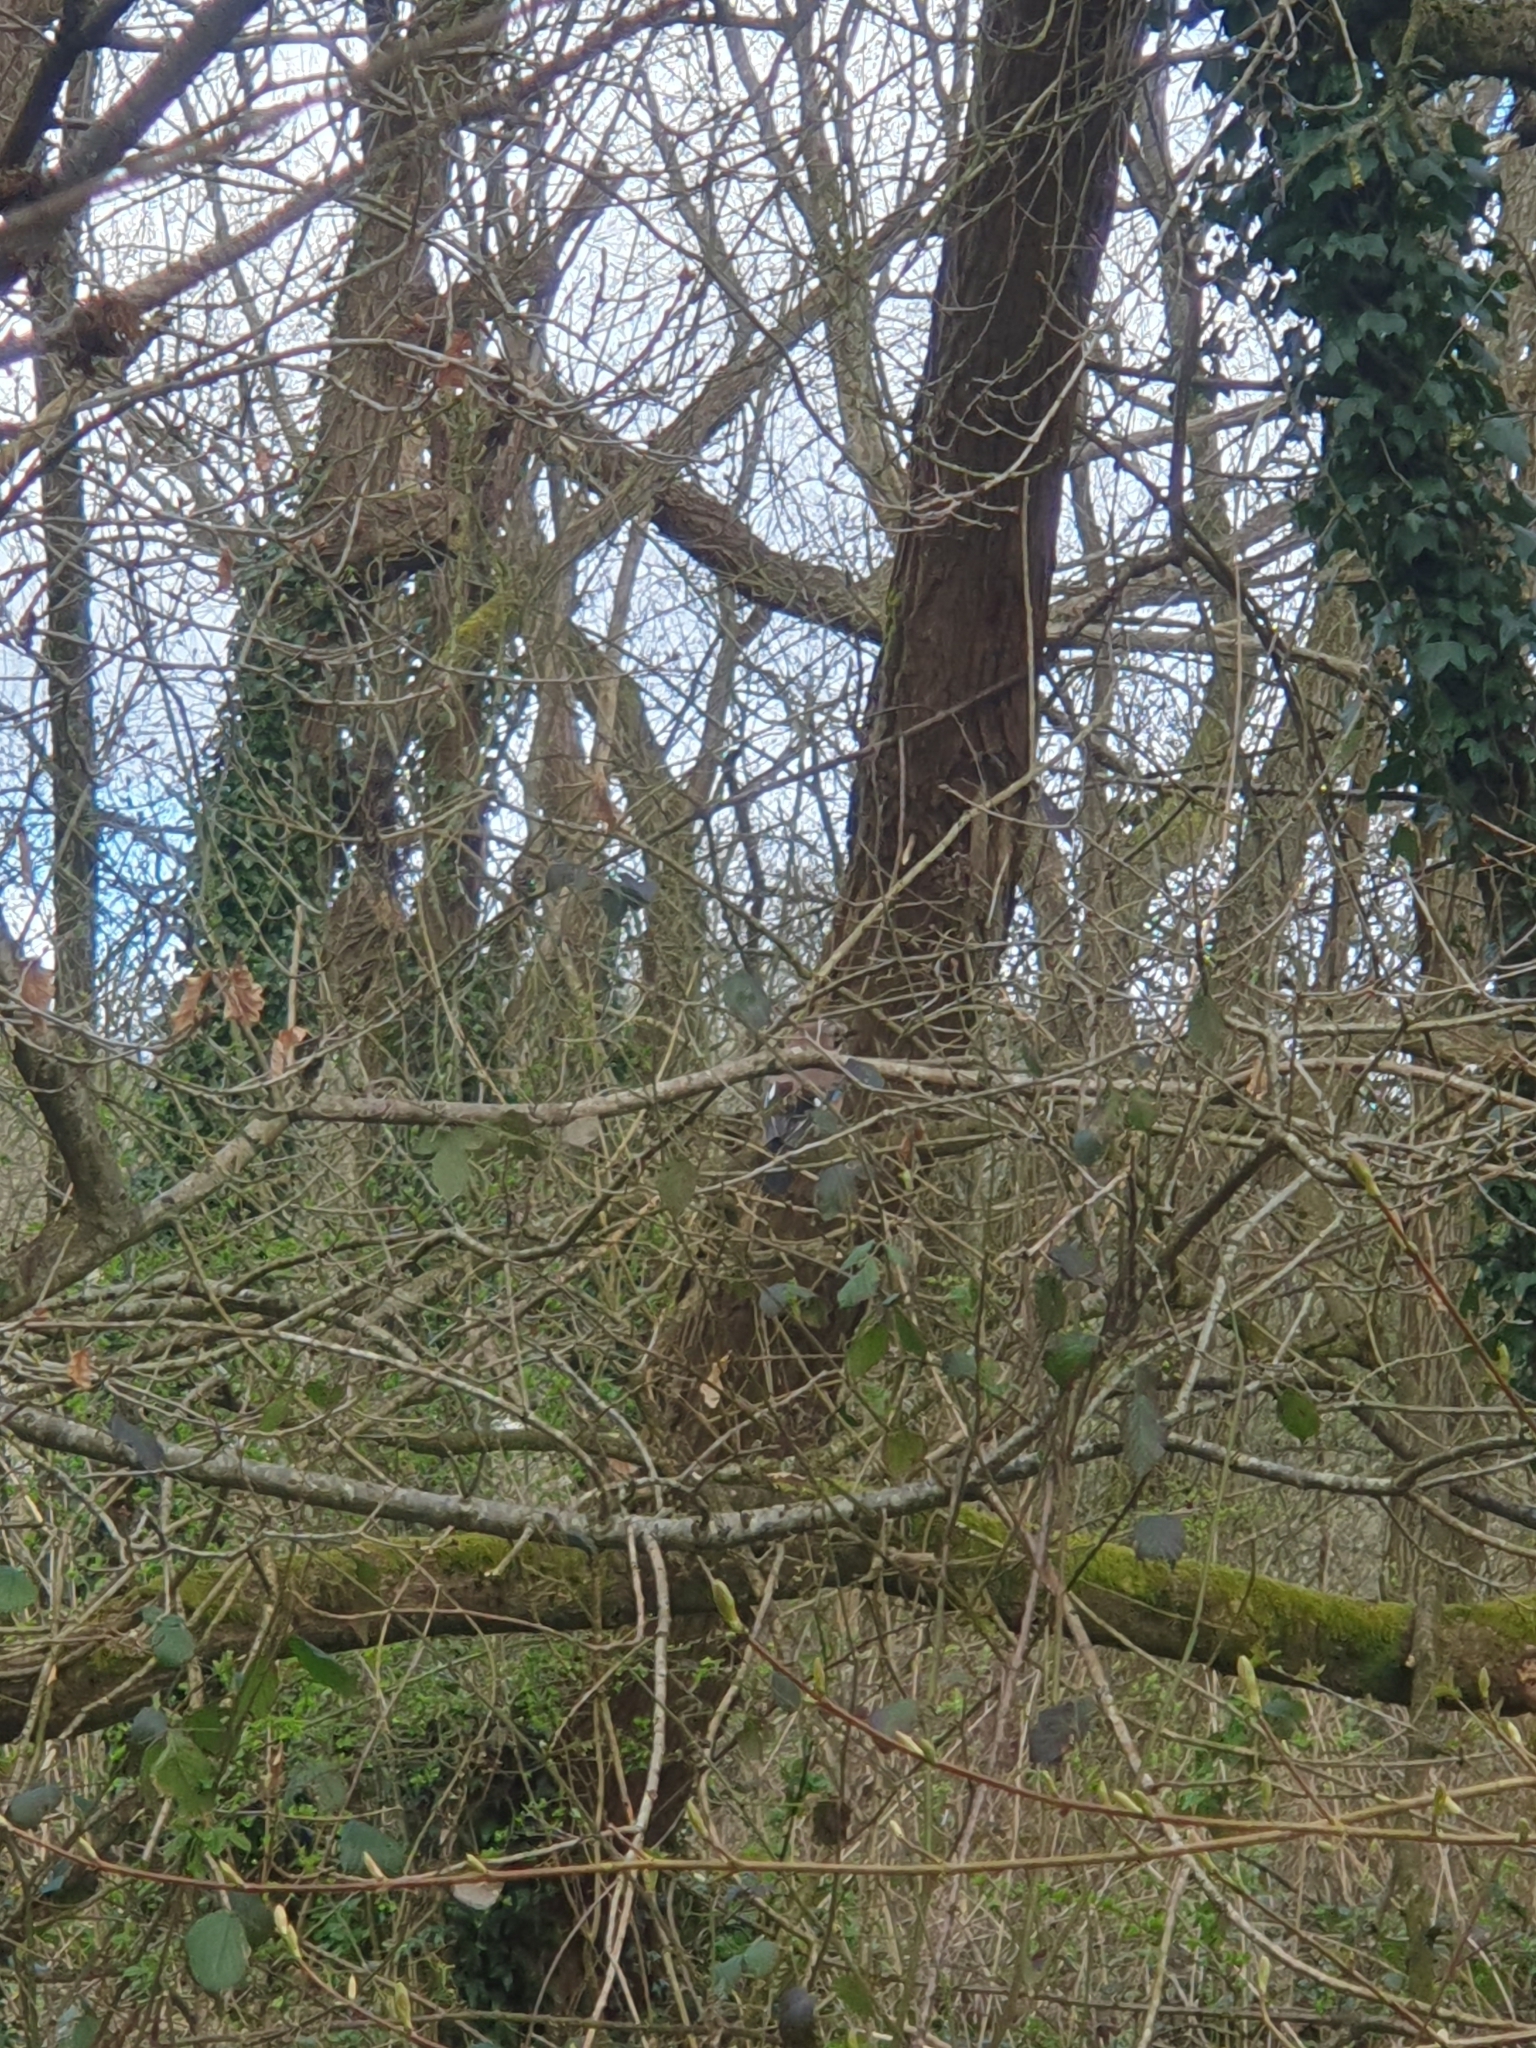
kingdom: Animalia
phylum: Chordata
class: Aves
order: Passeriformes
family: Corvidae
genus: Garrulus
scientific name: Garrulus glandarius
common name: Eurasian jay
